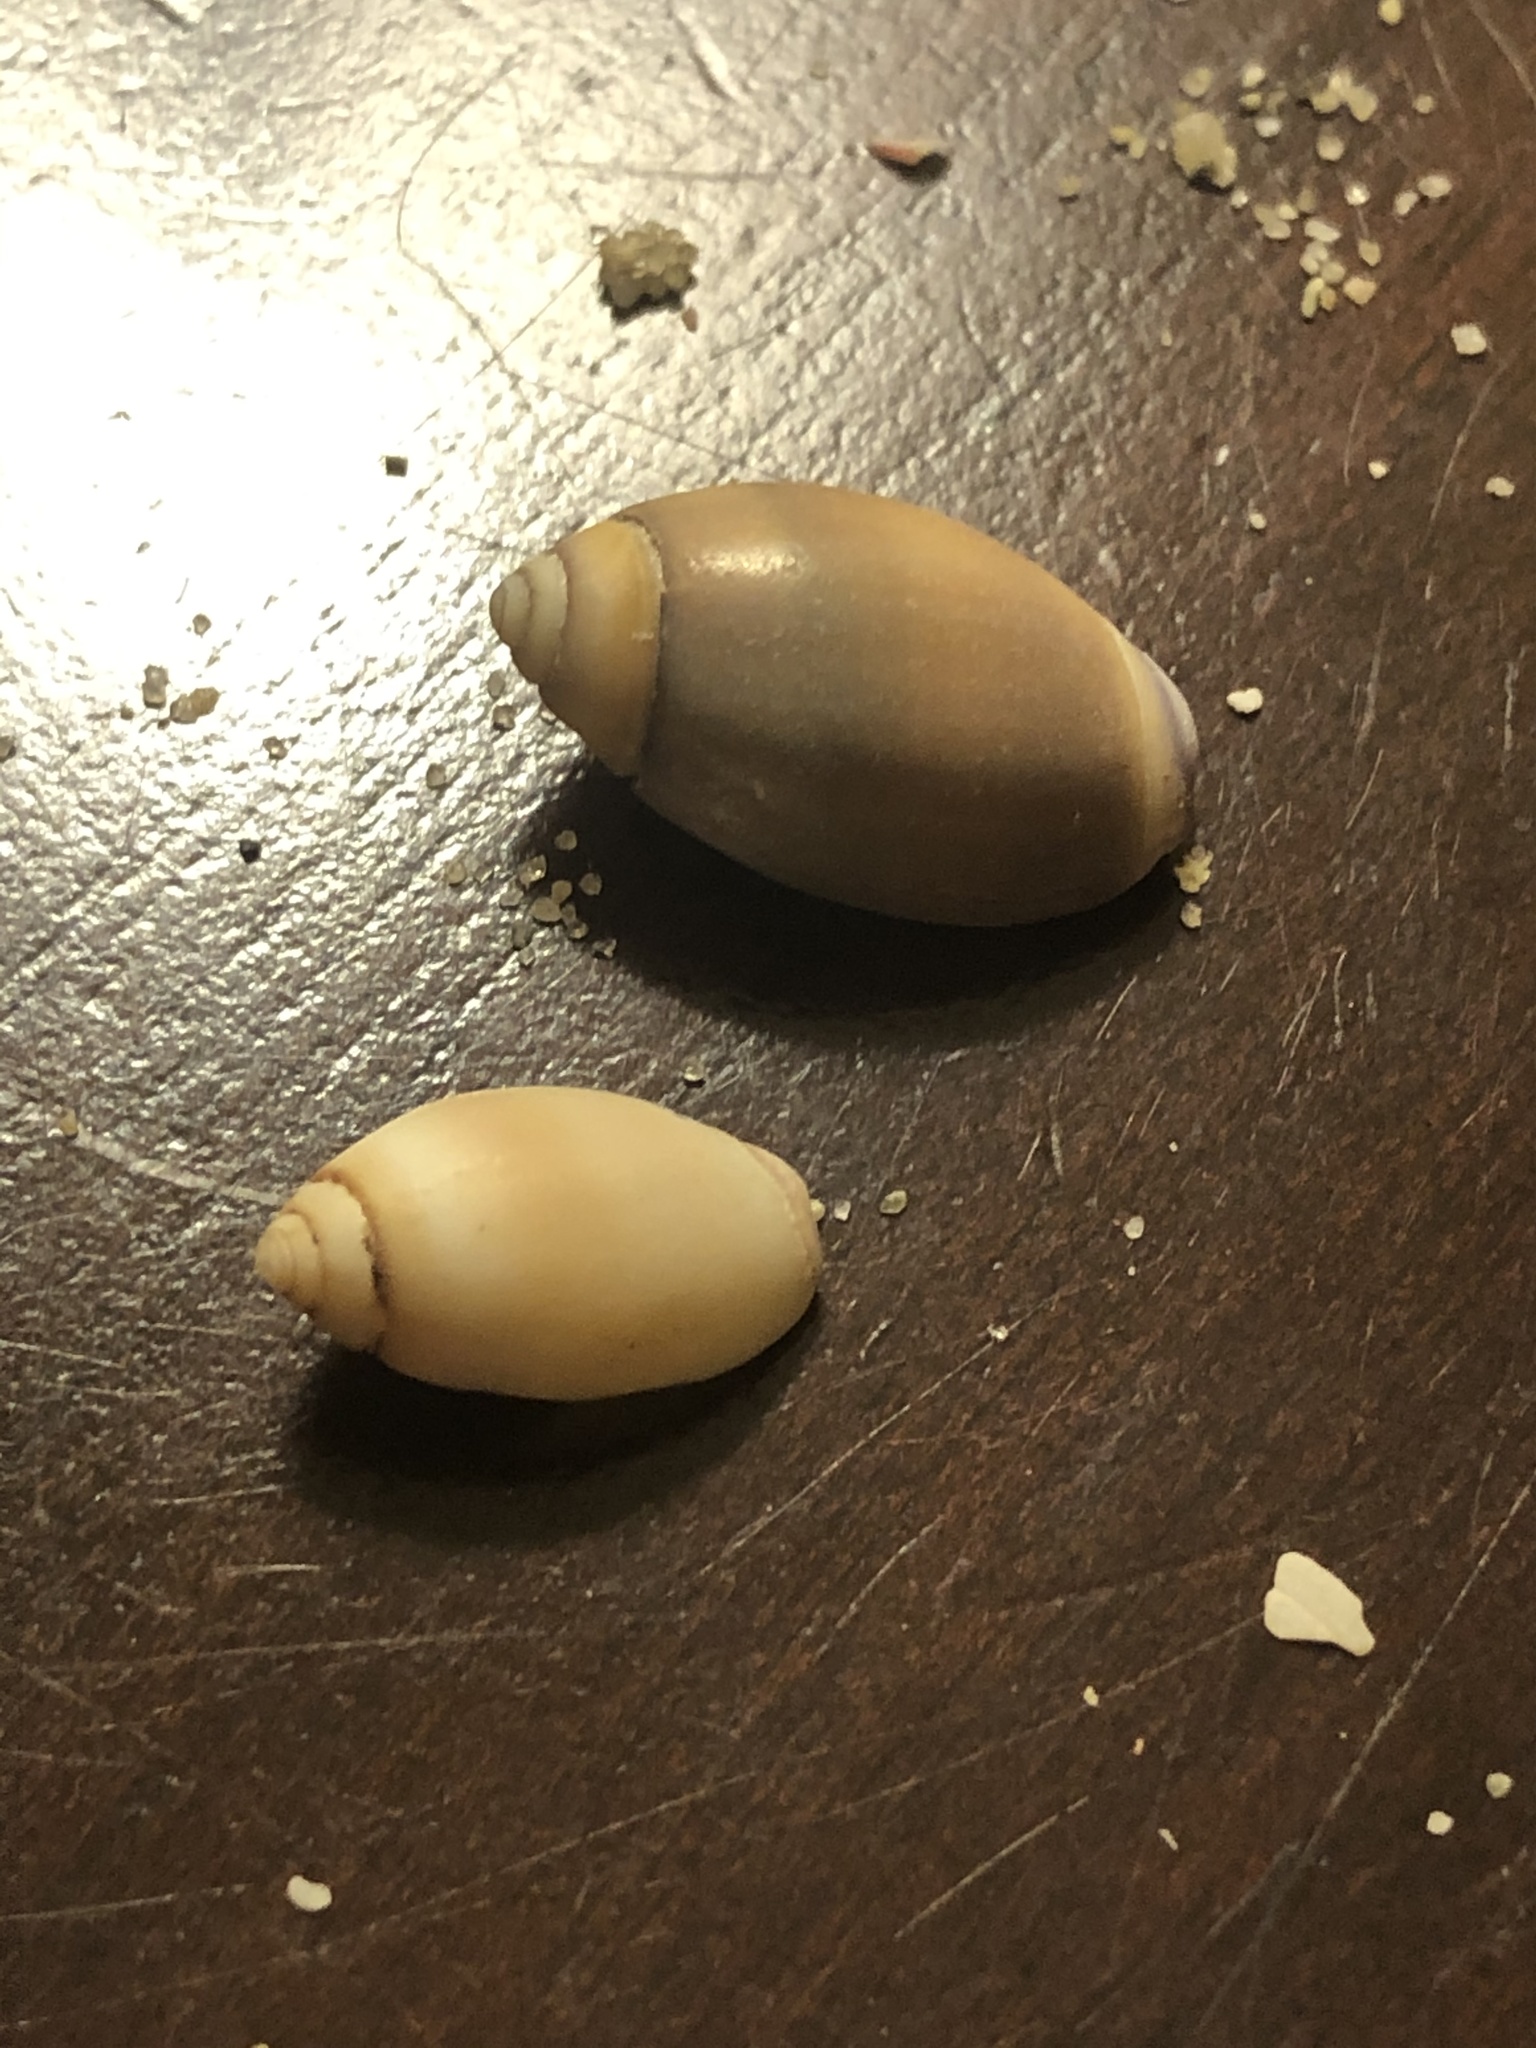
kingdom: Animalia
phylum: Mollusca
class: Gastropoda
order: Neogastropoda
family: Olividae
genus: Callianax
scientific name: Callianax biplicata
